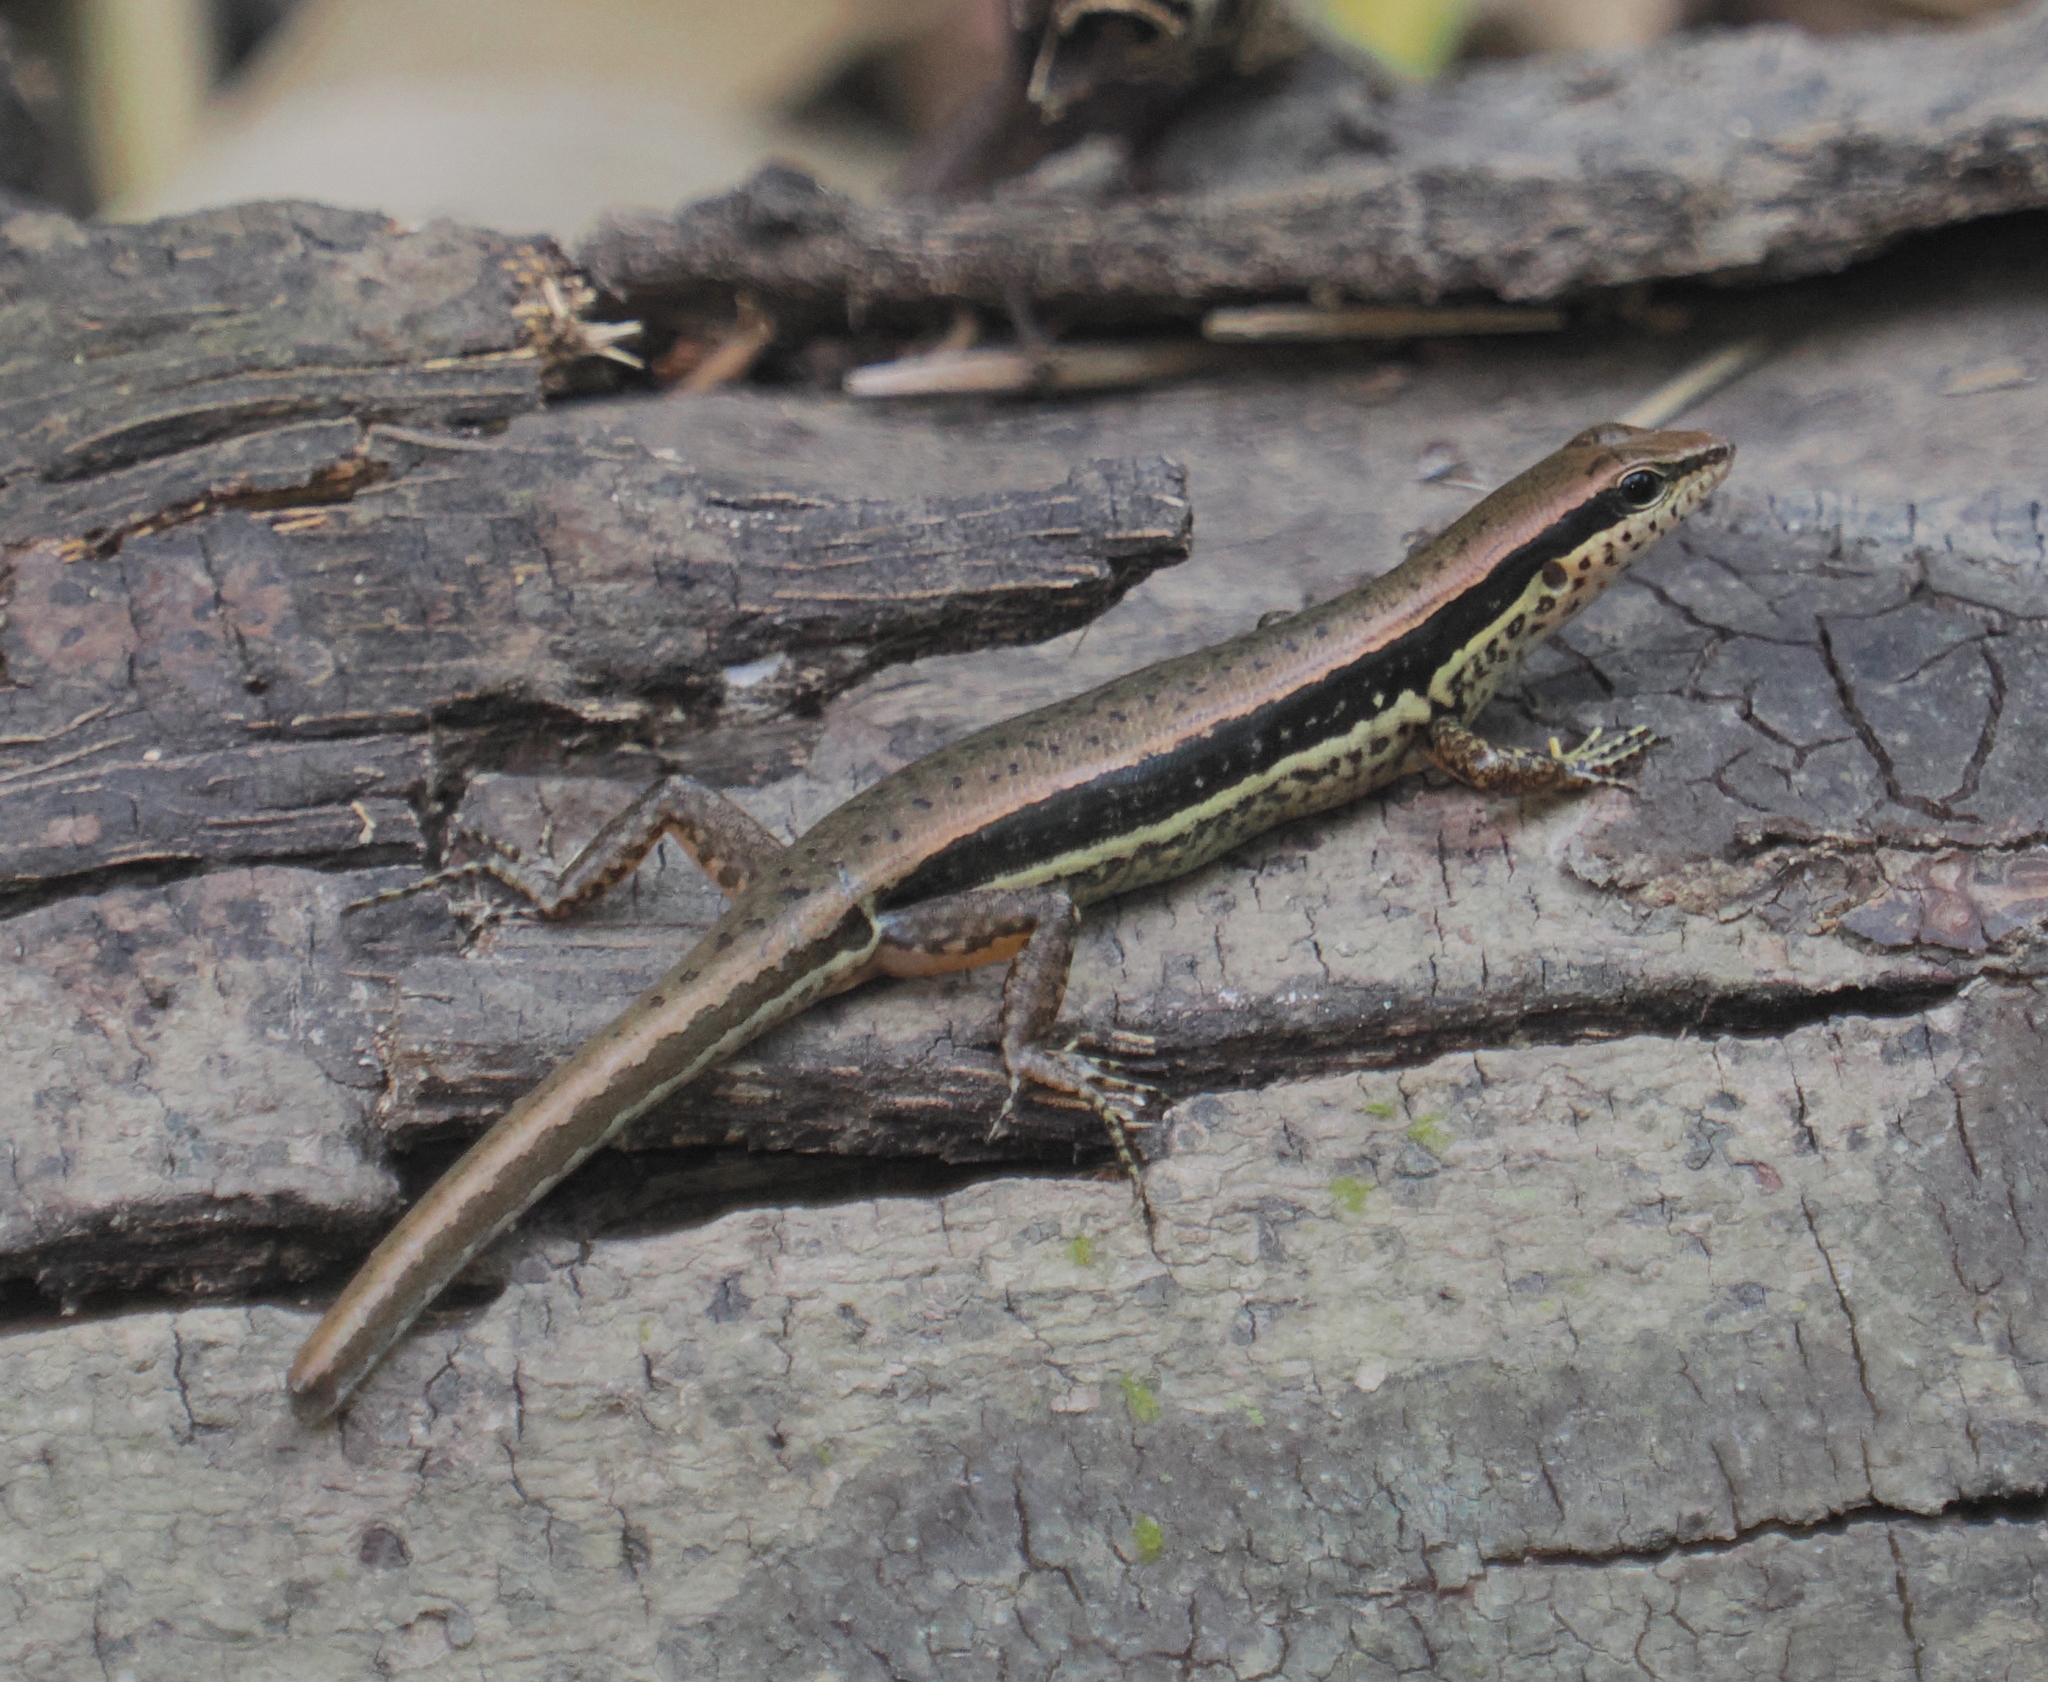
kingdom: Animalia
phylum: Chordata
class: Squamata
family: Scincidae
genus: Sphenomorphus
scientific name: Sphenomorphus maculatus
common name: Maculated forest skink
